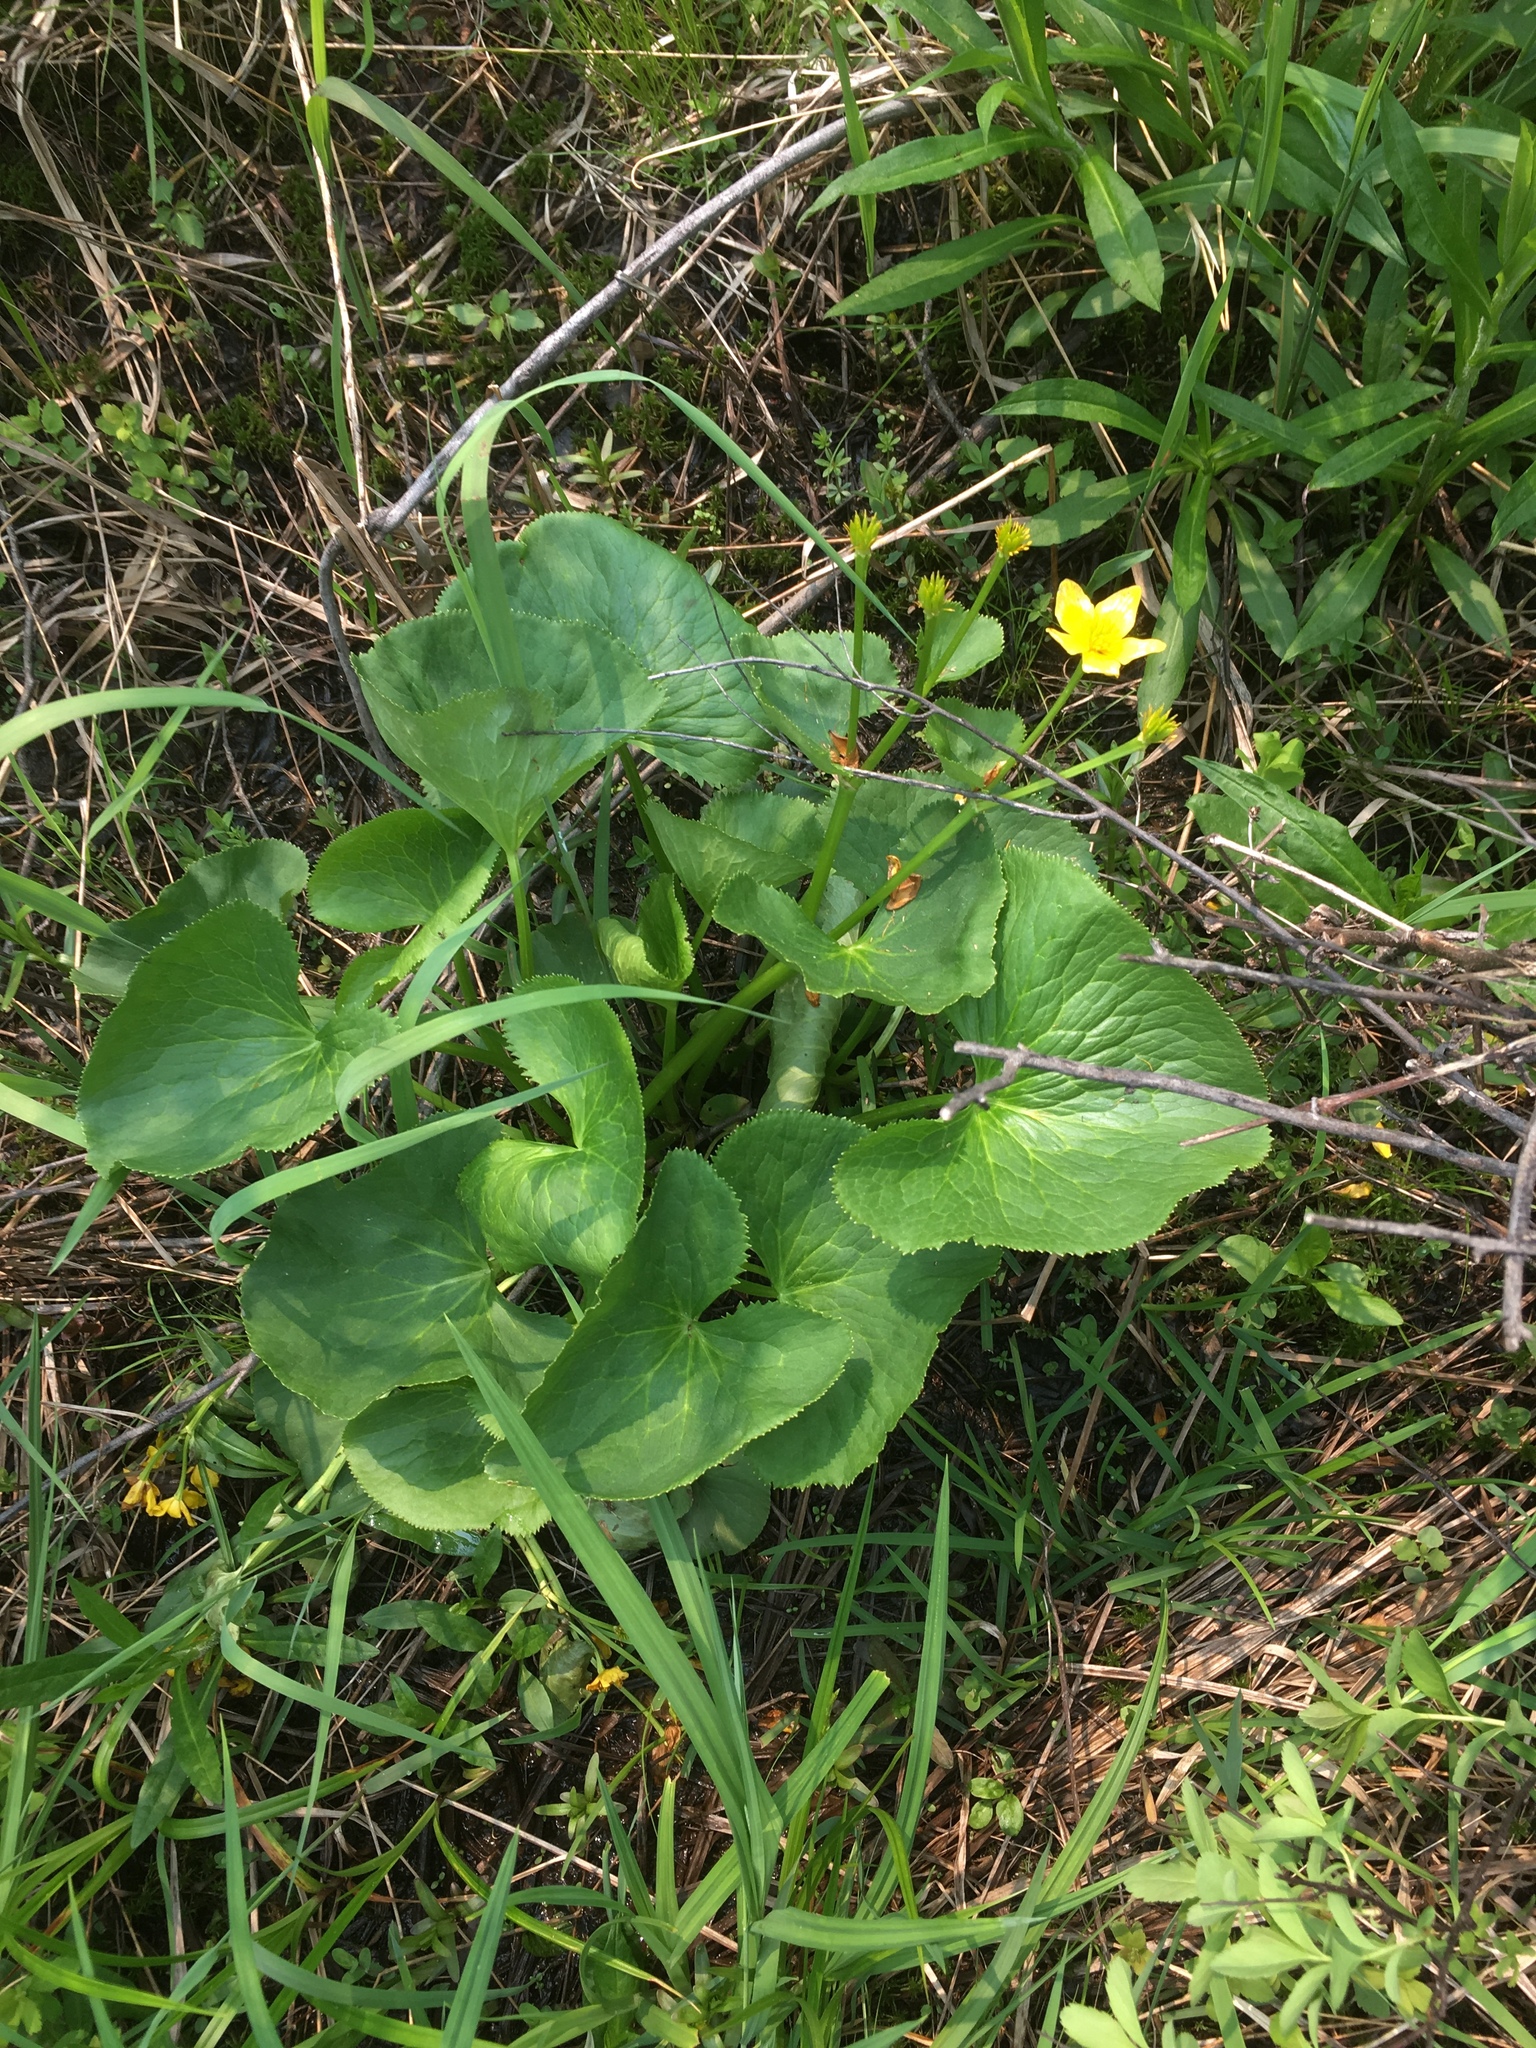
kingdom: Plantae
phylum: Tracheophyta
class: Magnoliopsida
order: Ranunculales
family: Ranunculaceae
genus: Caltha
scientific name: Caltha palustris
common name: Marsh marigold
